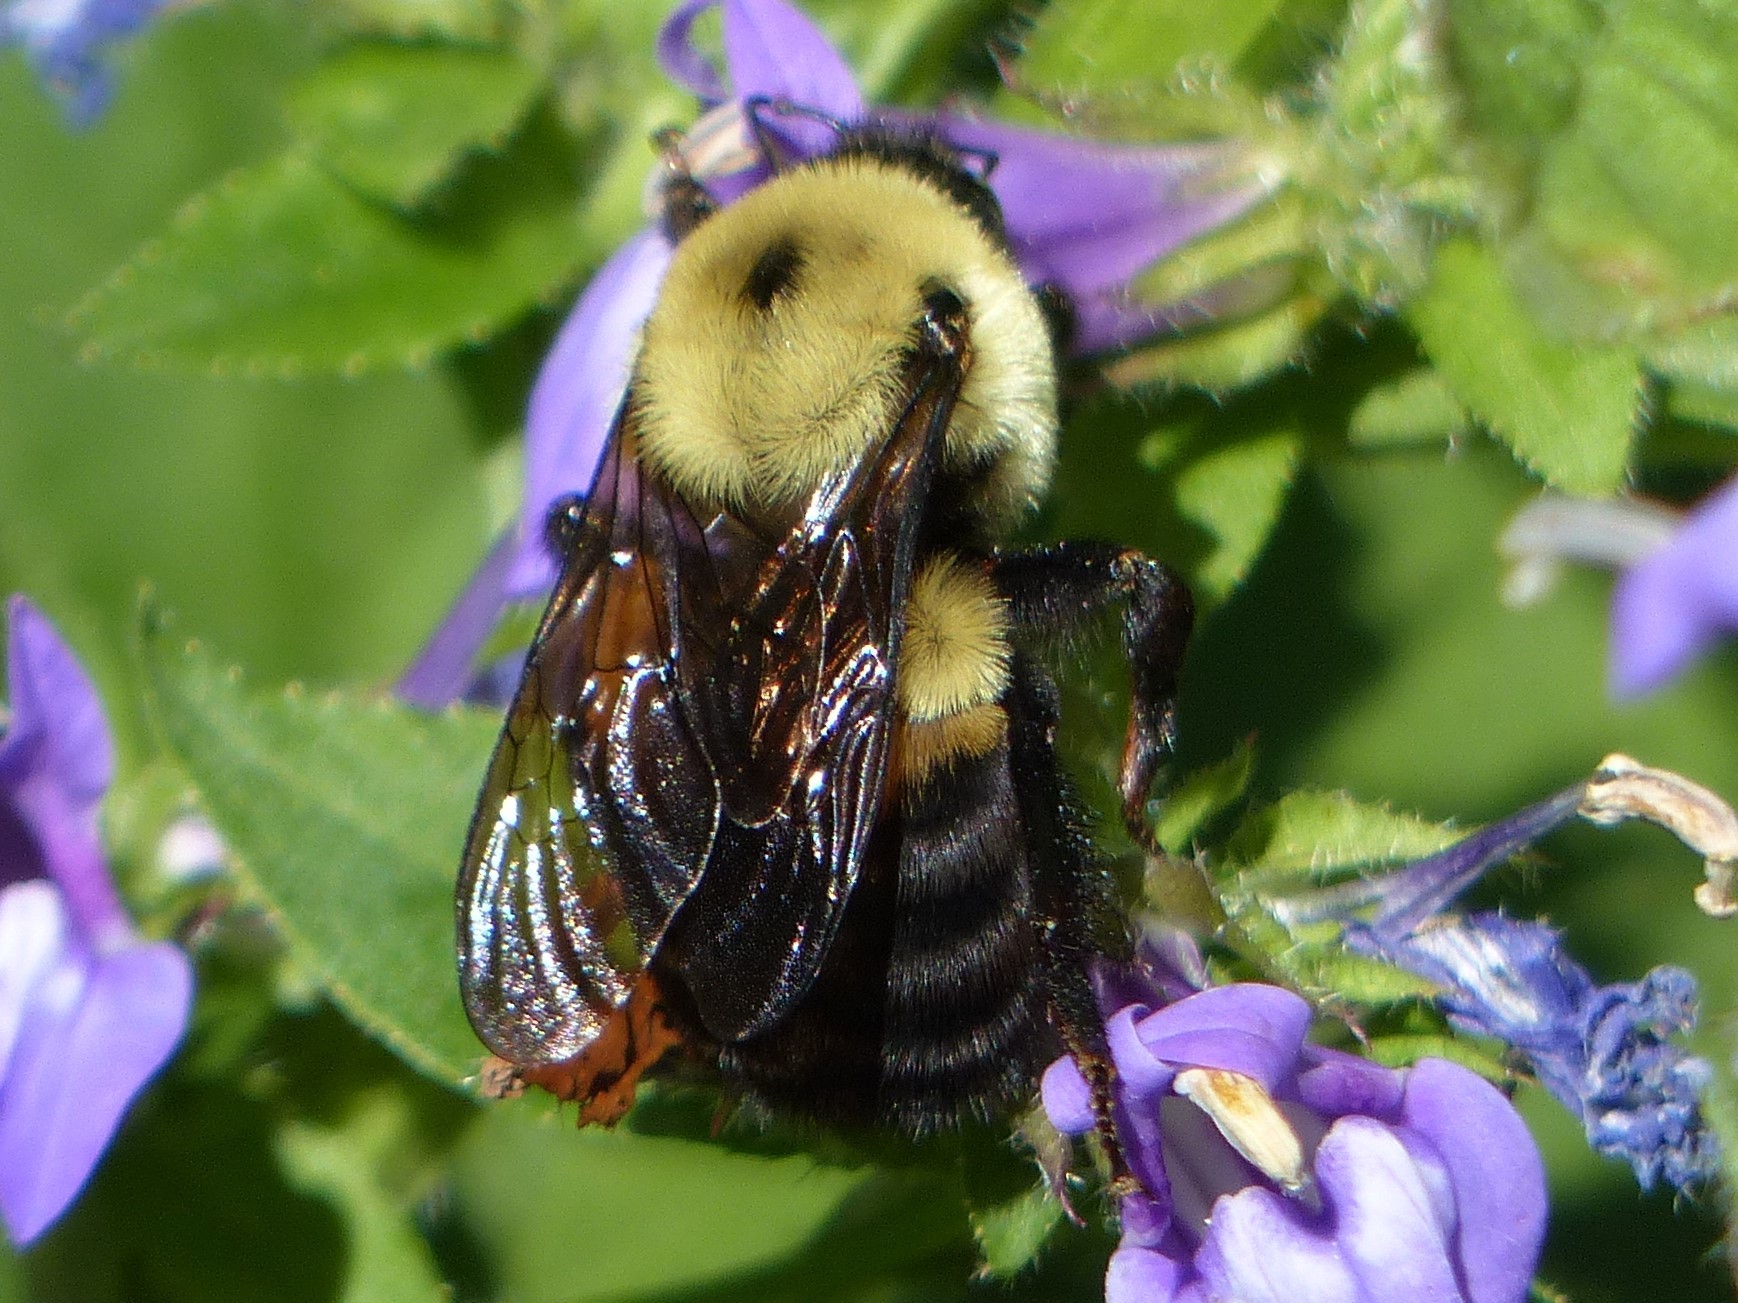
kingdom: Animalia
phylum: Arthropoda
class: Insecta
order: Hymenoptera
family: Apidae
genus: Bombus
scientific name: Bombus griseocollis
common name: Brown-belted bumble bee
